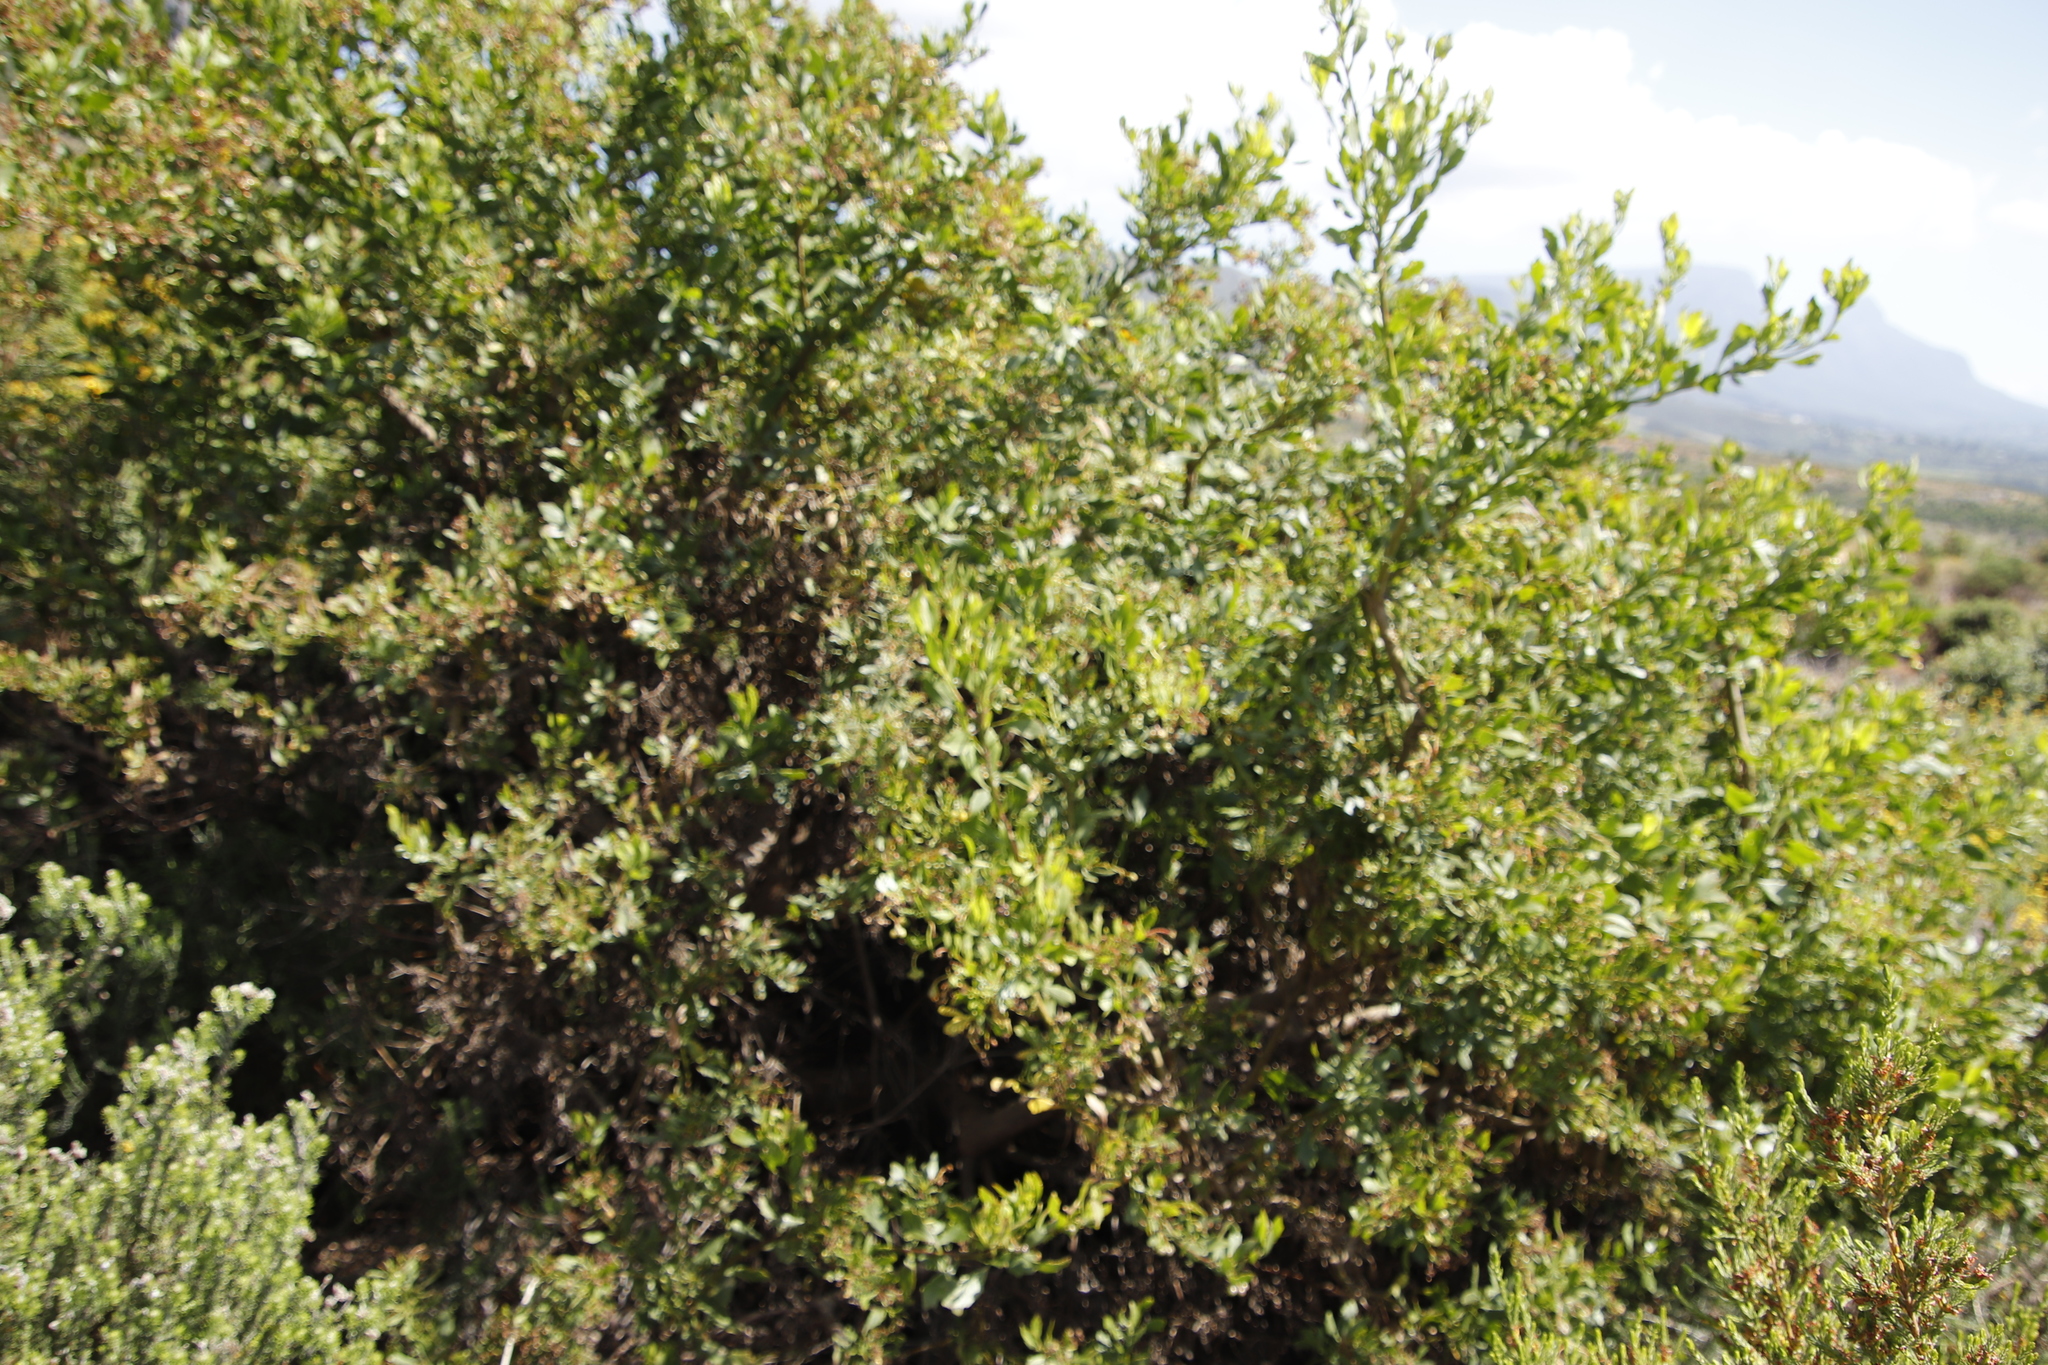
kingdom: Plantae
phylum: Tracheophyta
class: Magnoliopsida
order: Asterales
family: Asteraceae
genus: Osteospermum
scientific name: Osteospermum moniliferum
